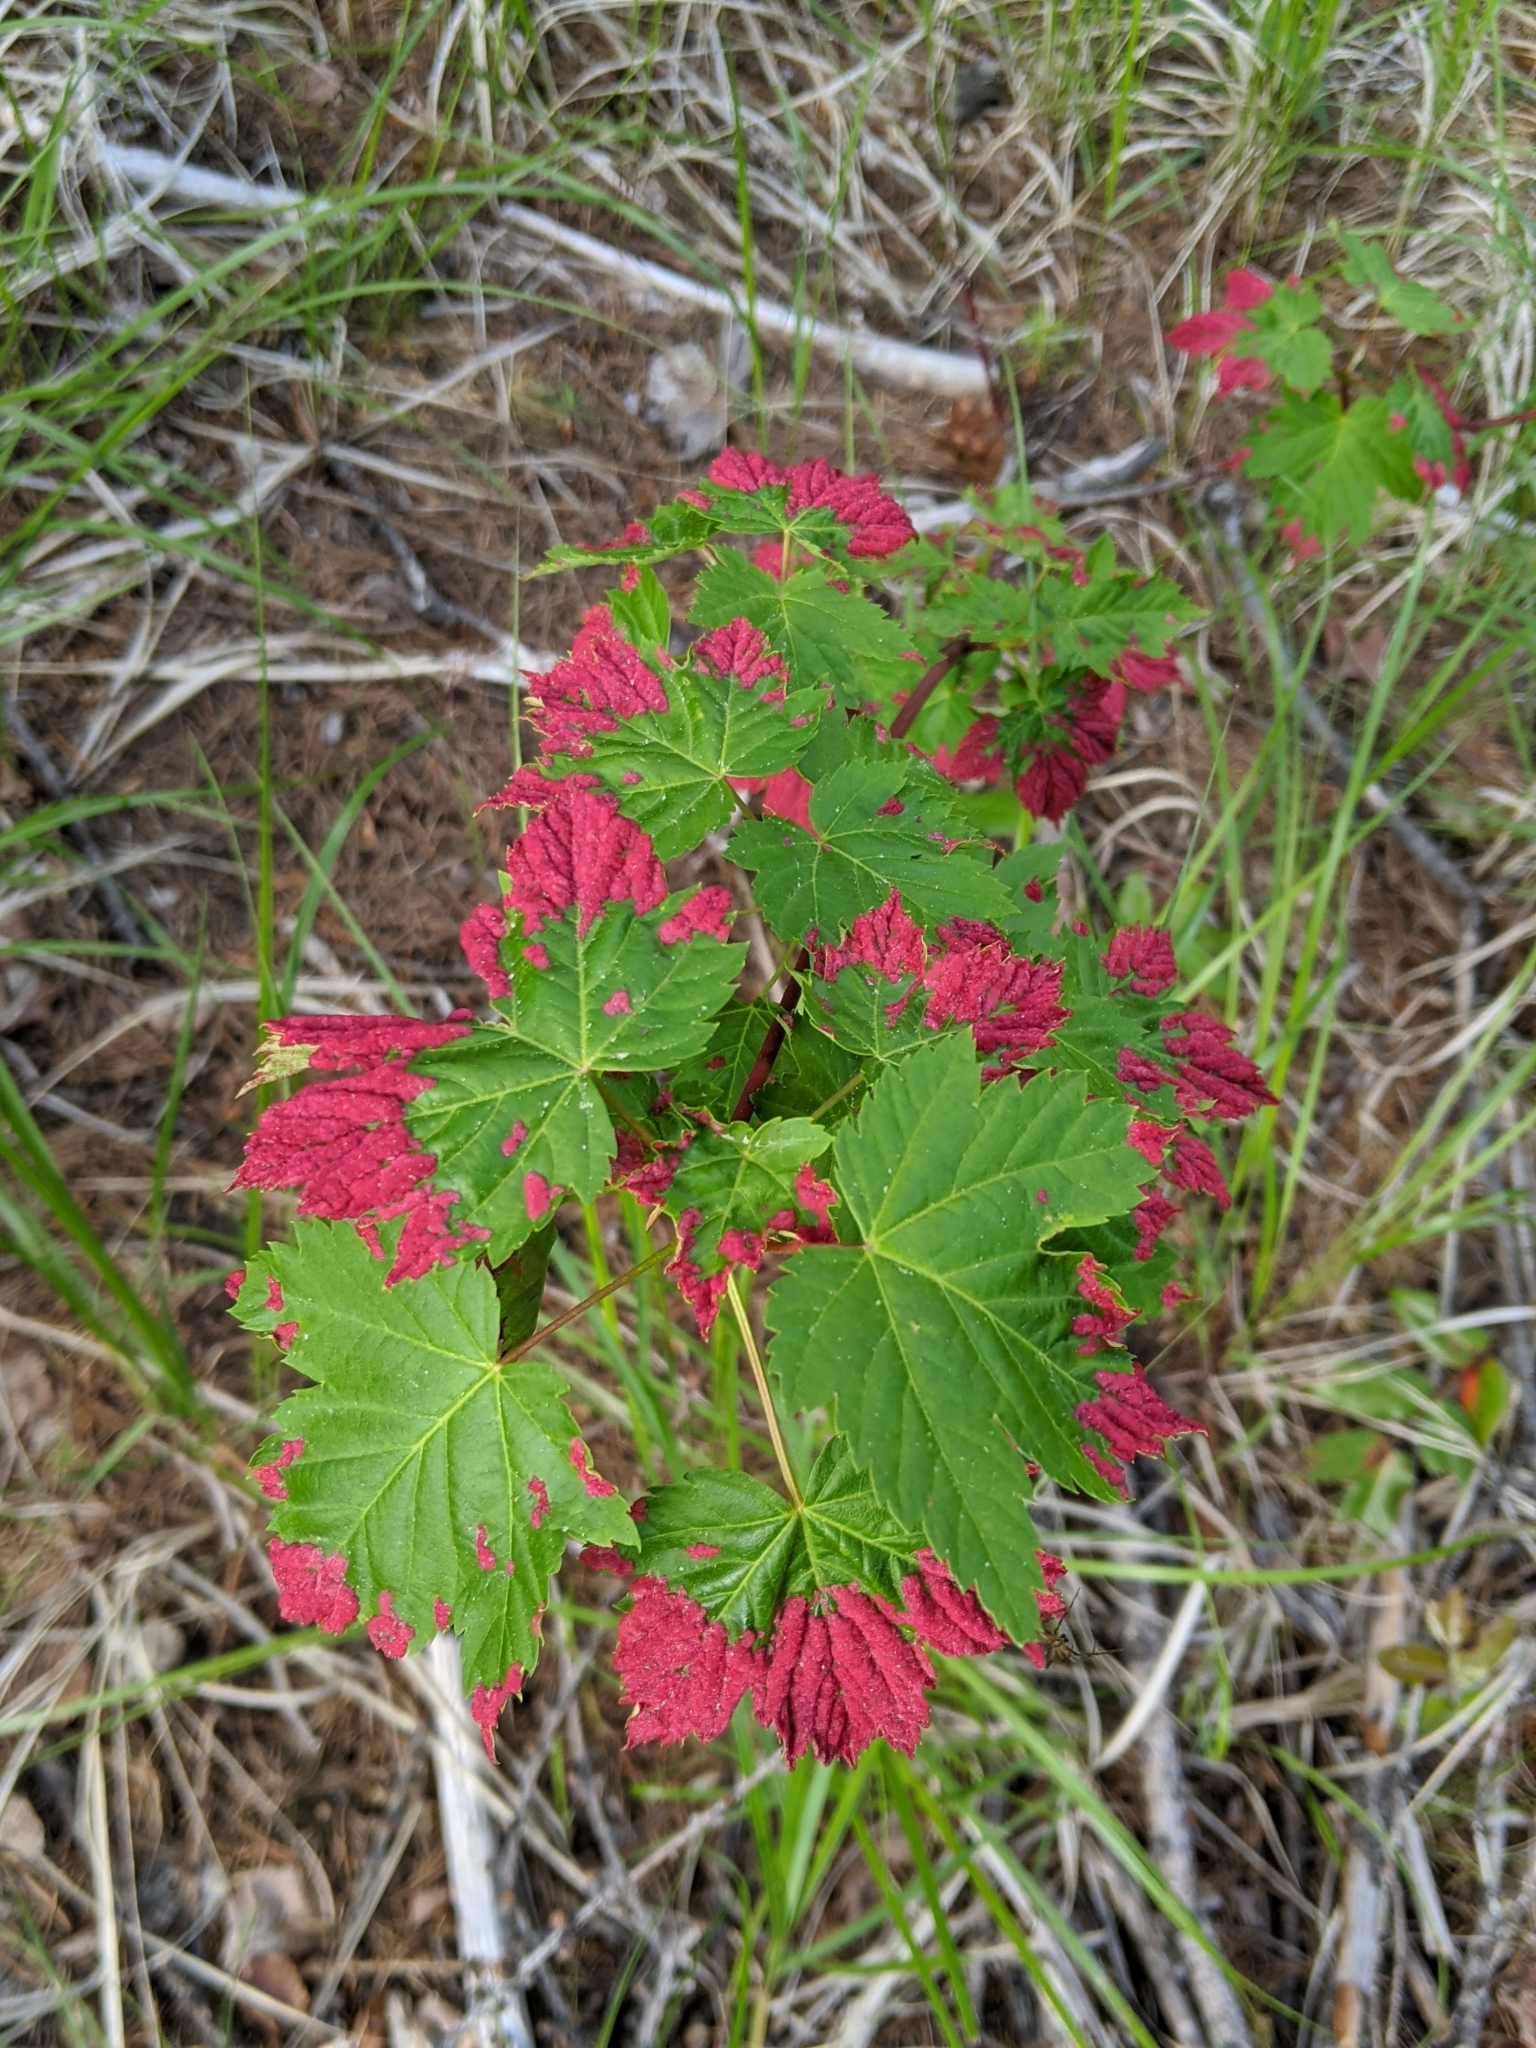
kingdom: Animalia
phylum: Arthropoda
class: Arachnida
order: Trombidiformes
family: Eriophyidae
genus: Aceria
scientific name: Aceria
